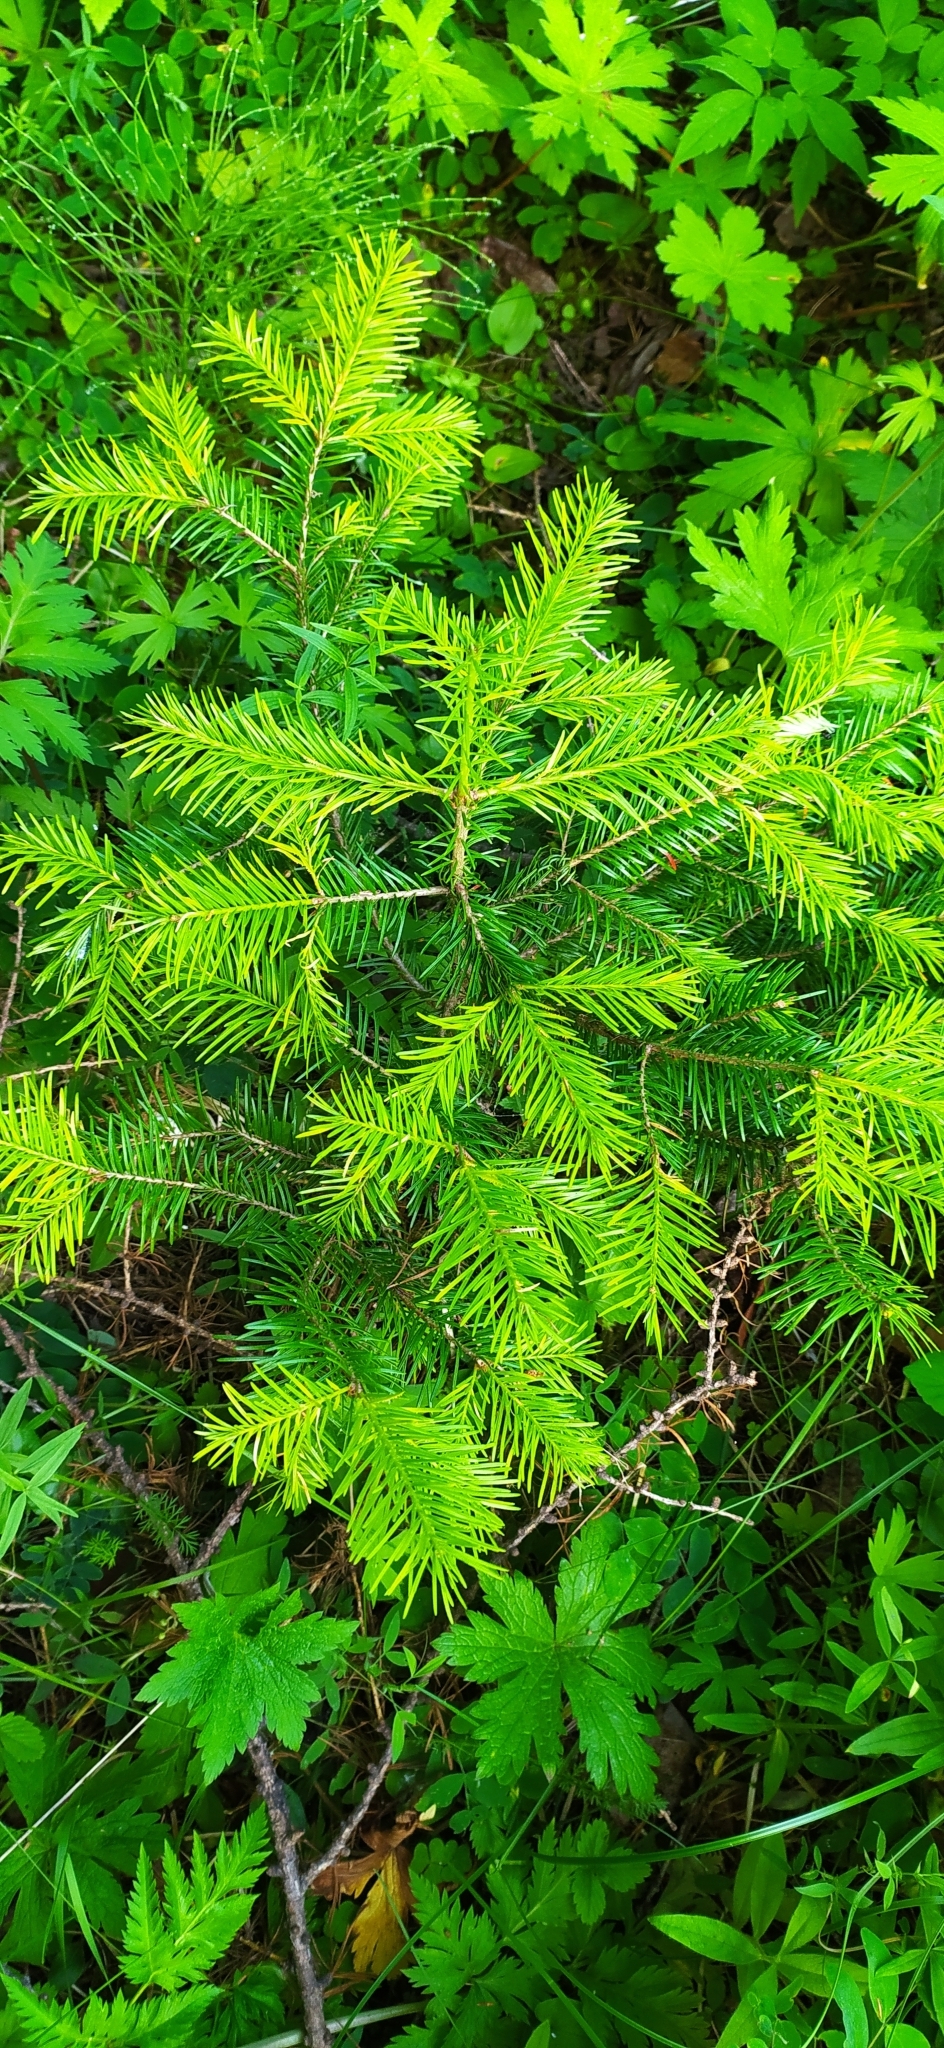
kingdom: Plantae
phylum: Tracheophyta
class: Pinopsida
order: Pinales
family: Pinaceae
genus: Abies
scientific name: Abies sibirica
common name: Siberian fir
